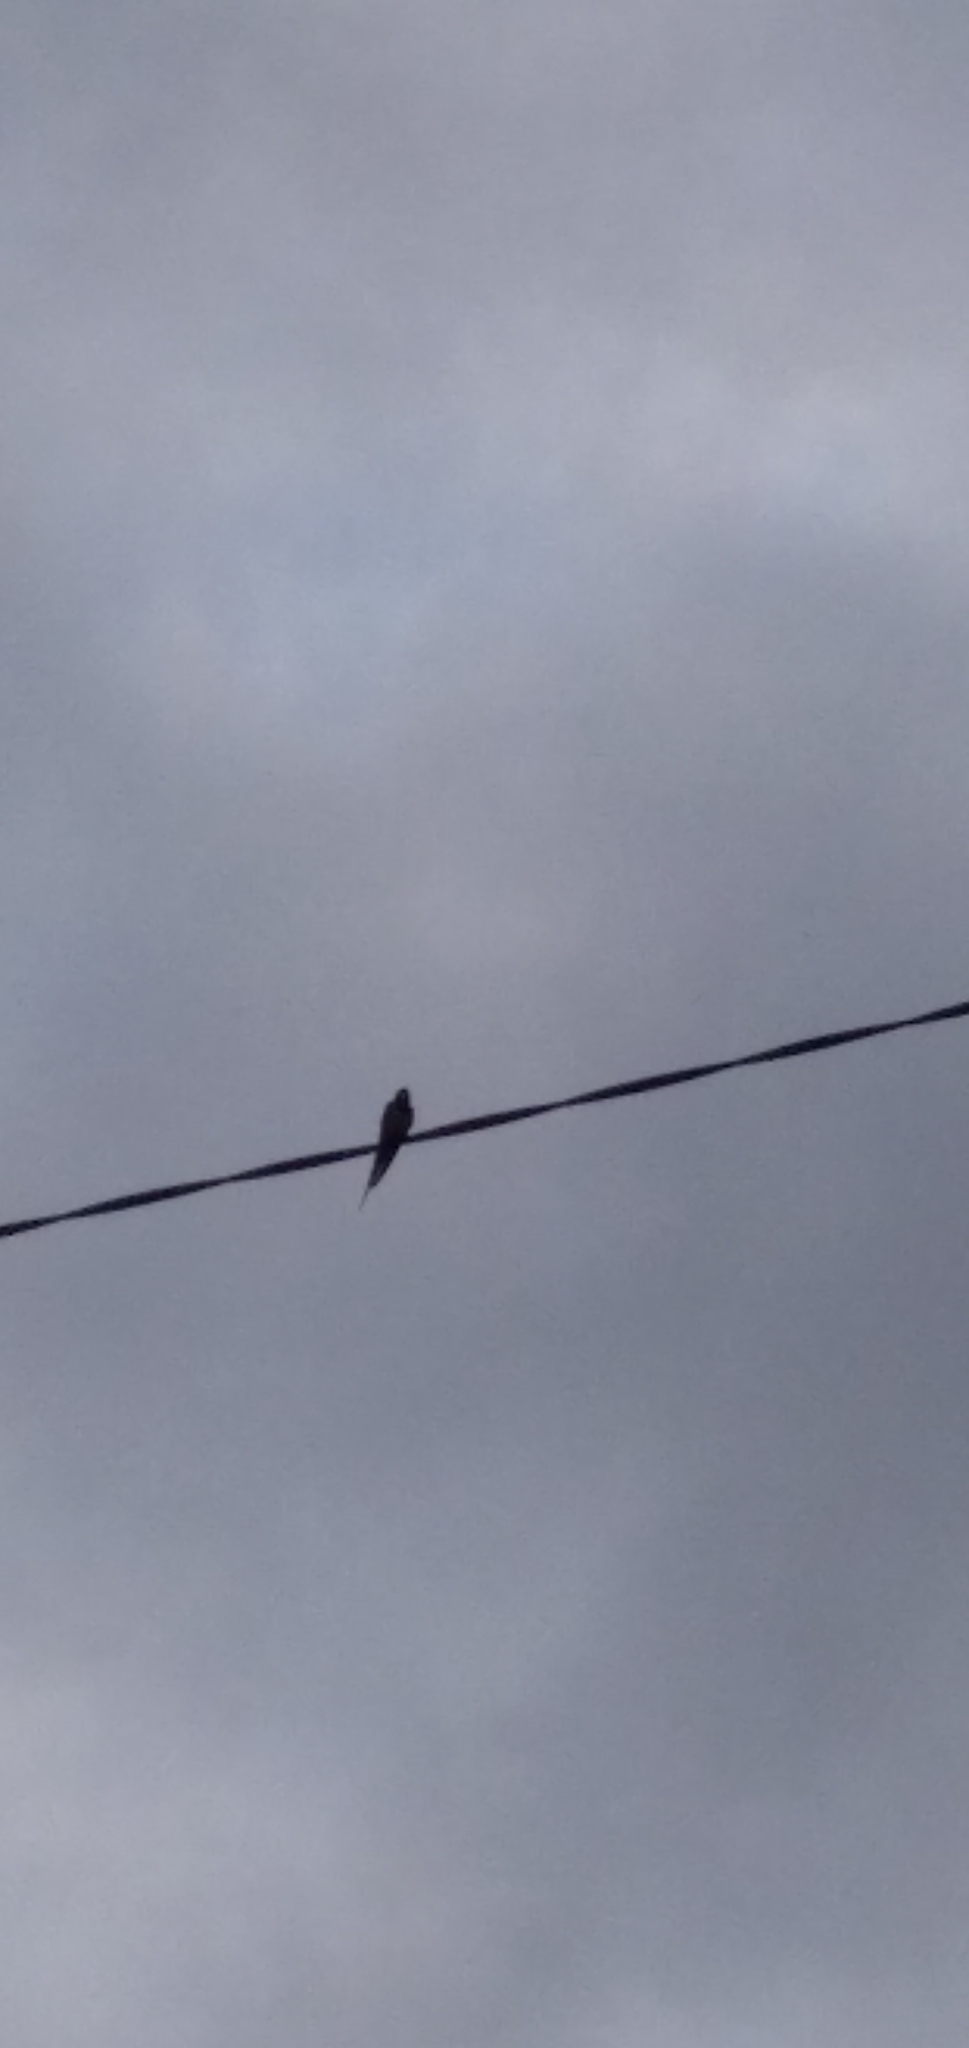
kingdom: Animalia
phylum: Chordata
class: Aves
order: Passeriformes
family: Hirundinidae
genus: Hirundo
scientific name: Hirundo rustica
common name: Barn swallow
